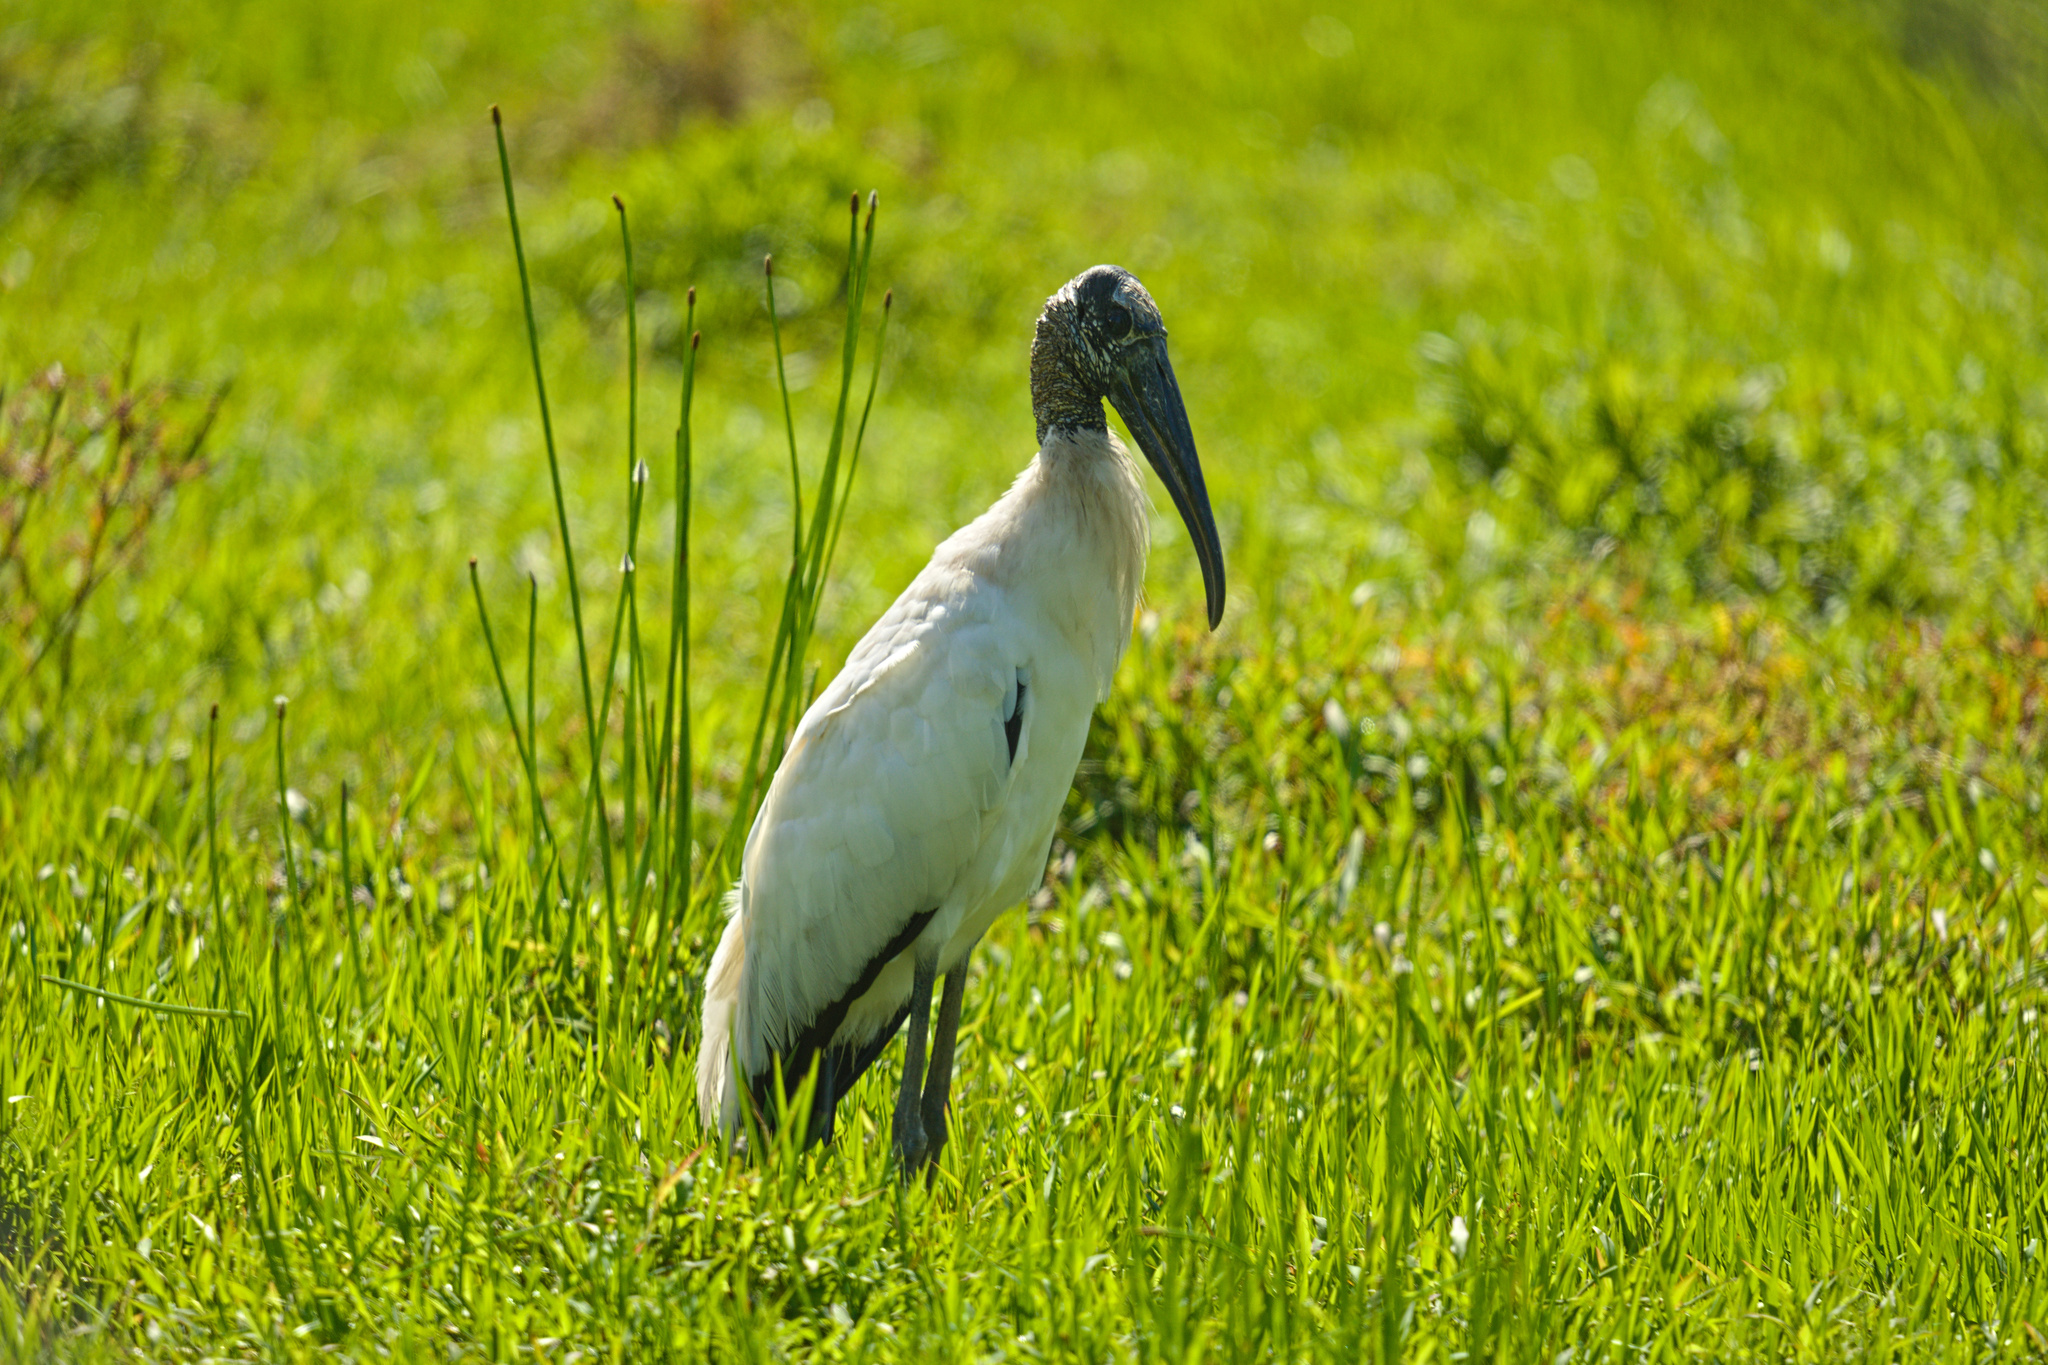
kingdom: Animalia
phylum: Chordata
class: Aves
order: Ciconiiformes
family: Ciconiidae
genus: Mycteria
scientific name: Mycteria americana
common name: Wood stork
